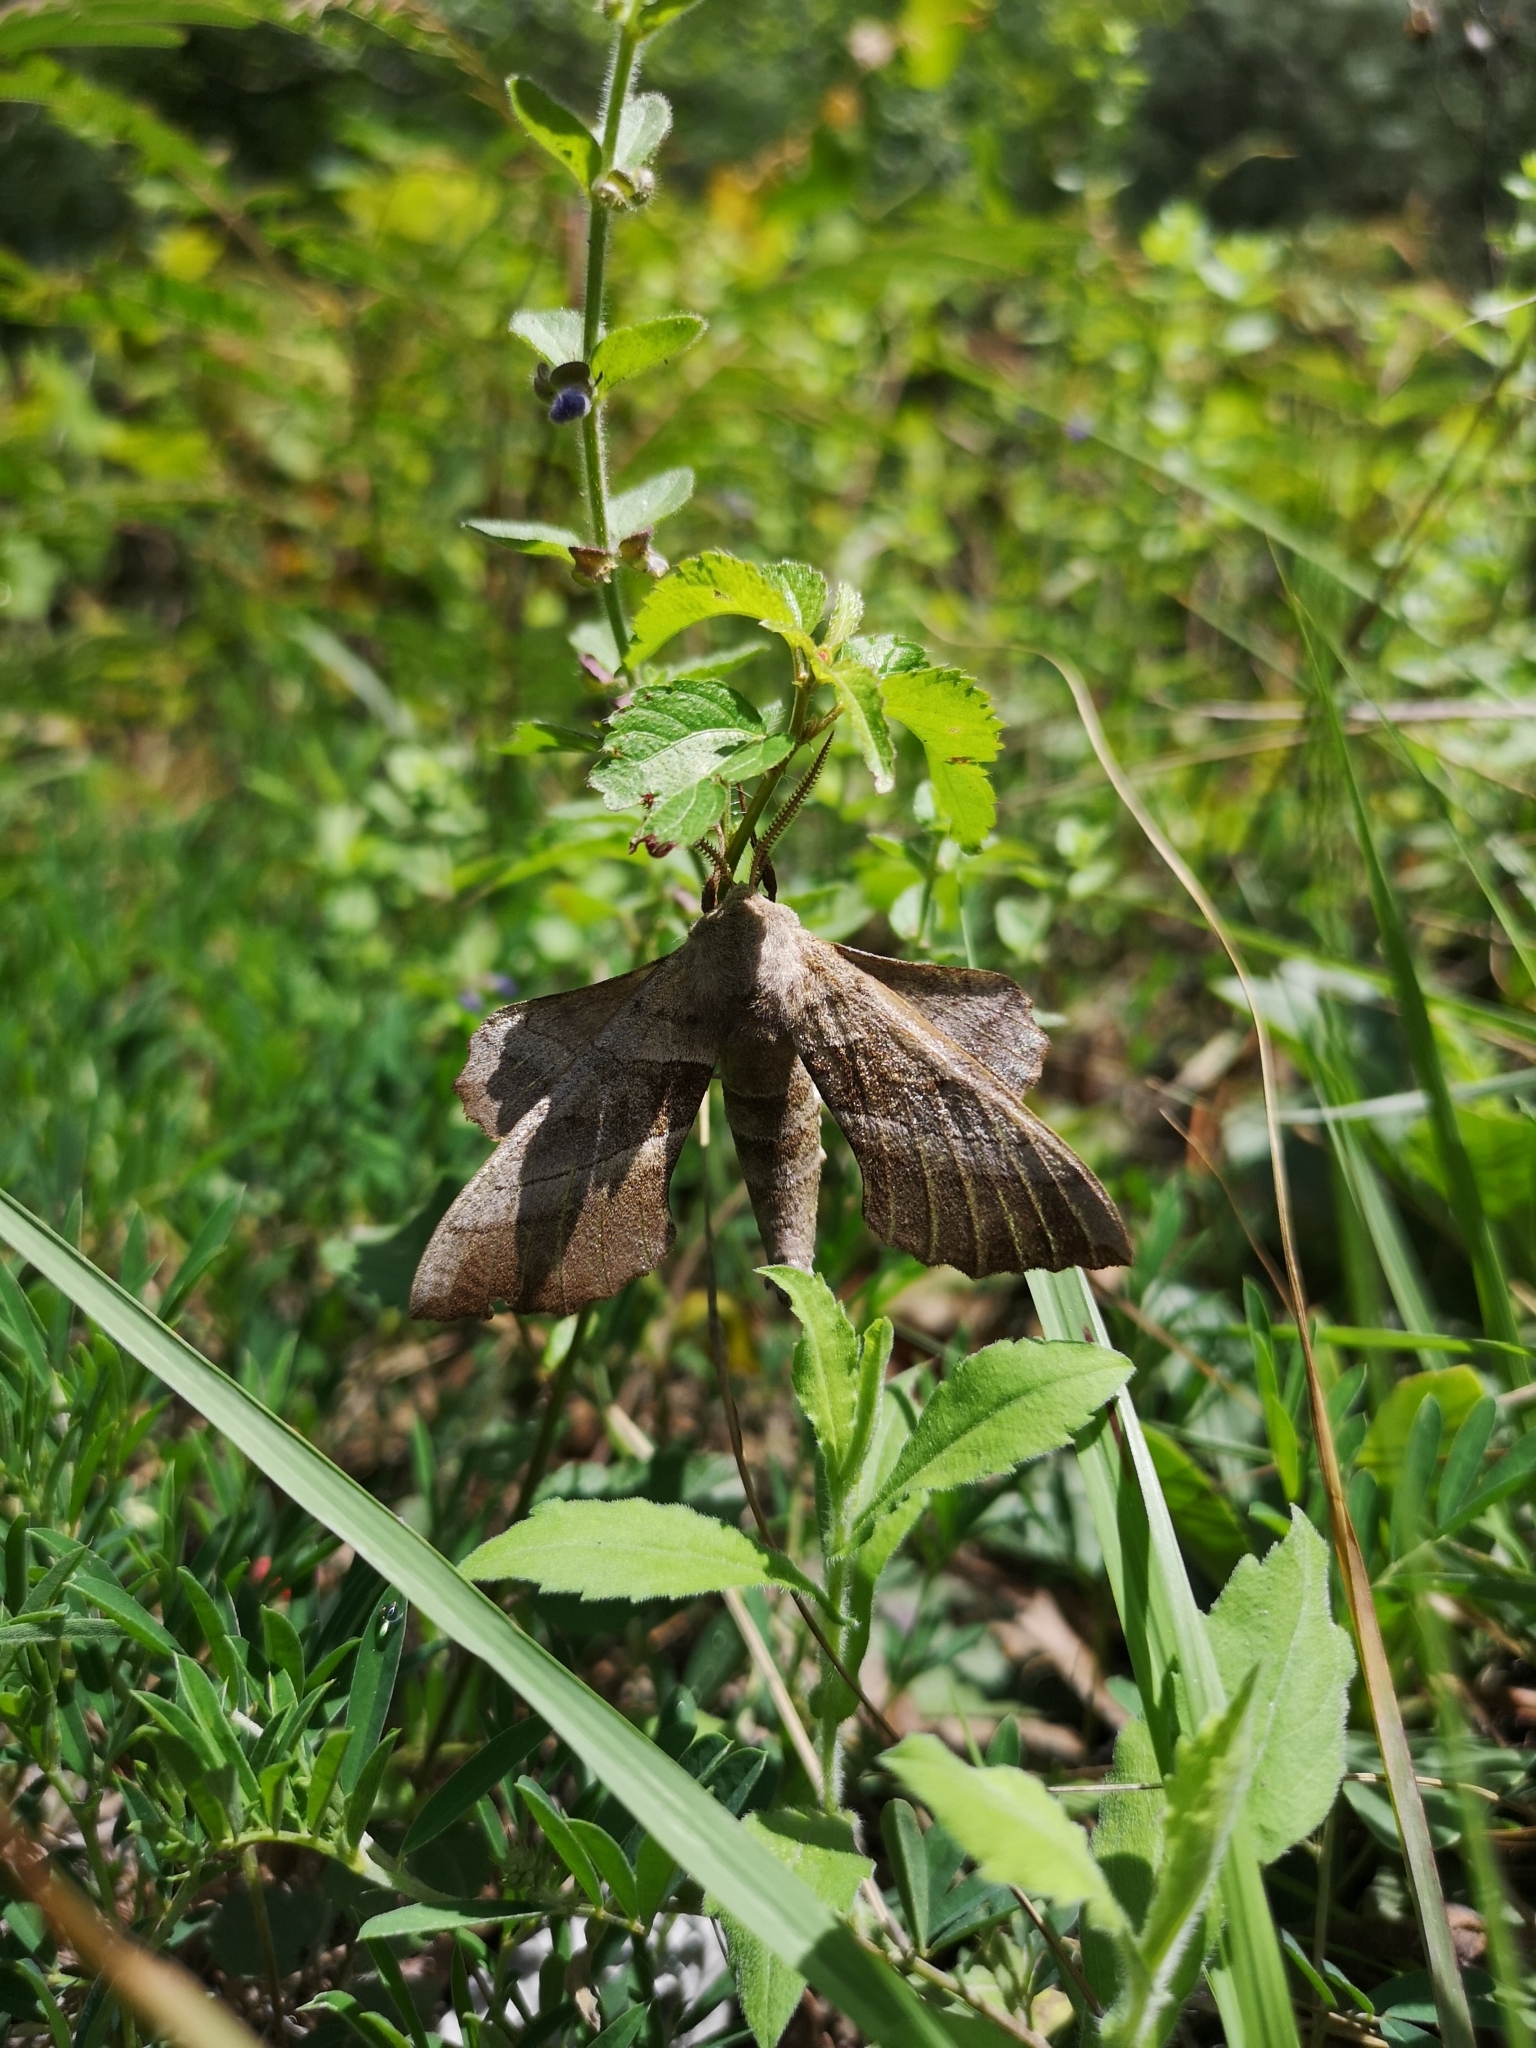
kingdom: Animalia
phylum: Arthropoda
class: Insecta
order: Lepidoptera
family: Sphingidae
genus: Amorpha
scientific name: Amorpha juglandis
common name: Walnut sphinx
